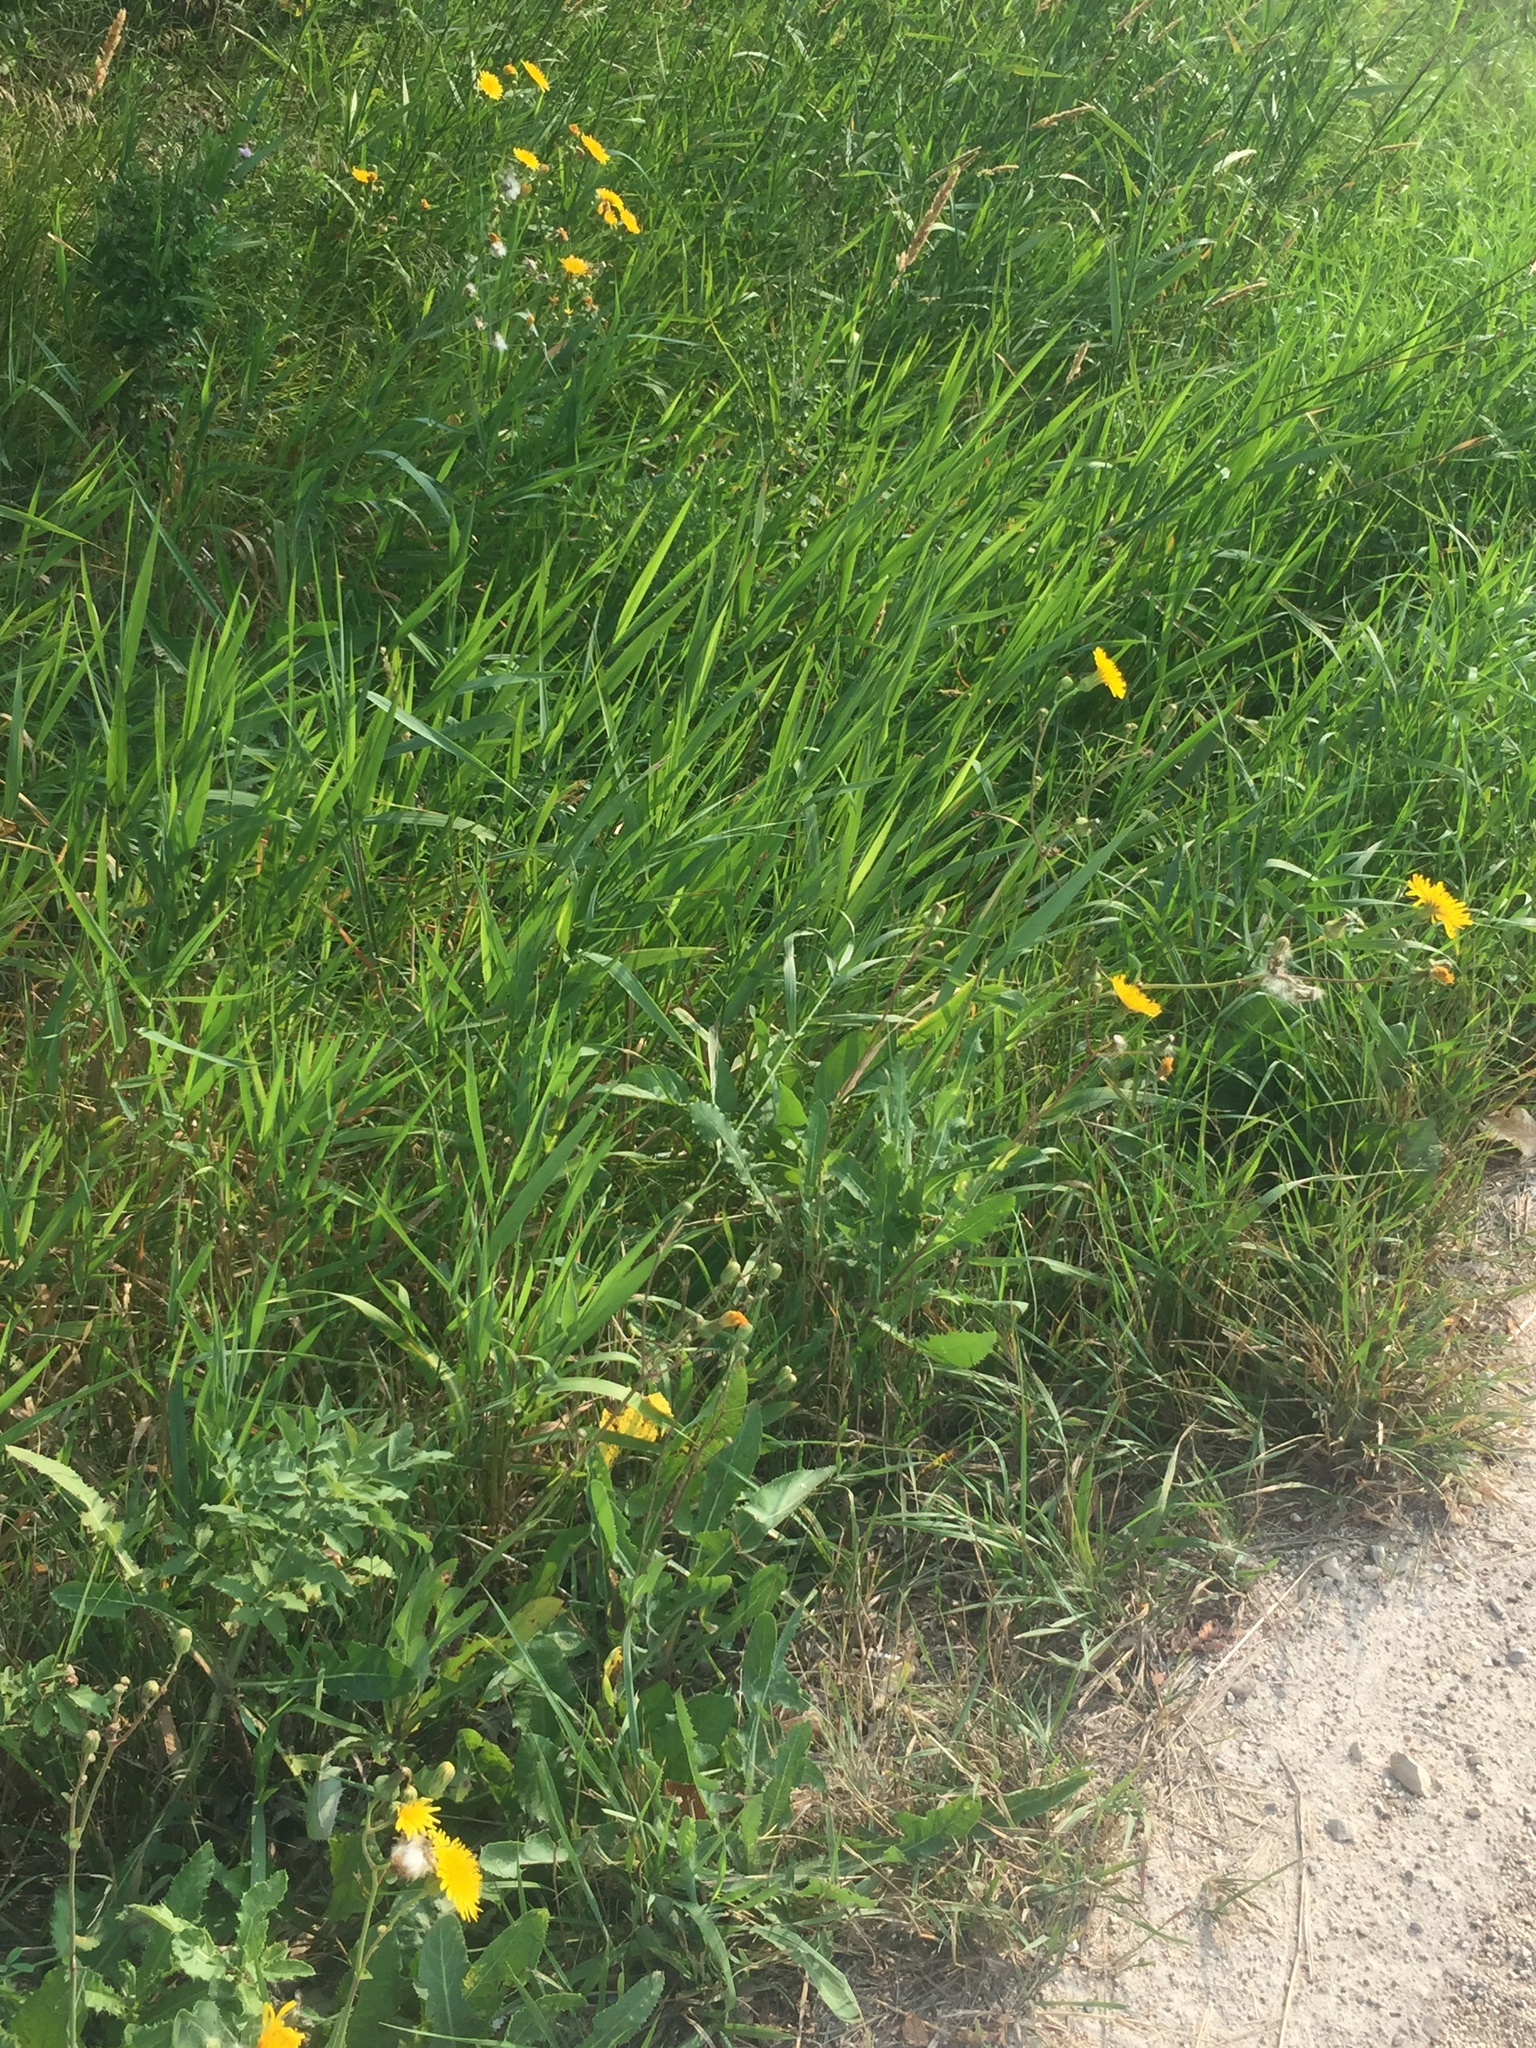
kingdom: Plantae
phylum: Tracheophyta
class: Magnoliopsida
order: Asterales
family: Asteraceae
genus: Sonchus
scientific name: Sonchus arvensis
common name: Perennial sow-thistle
